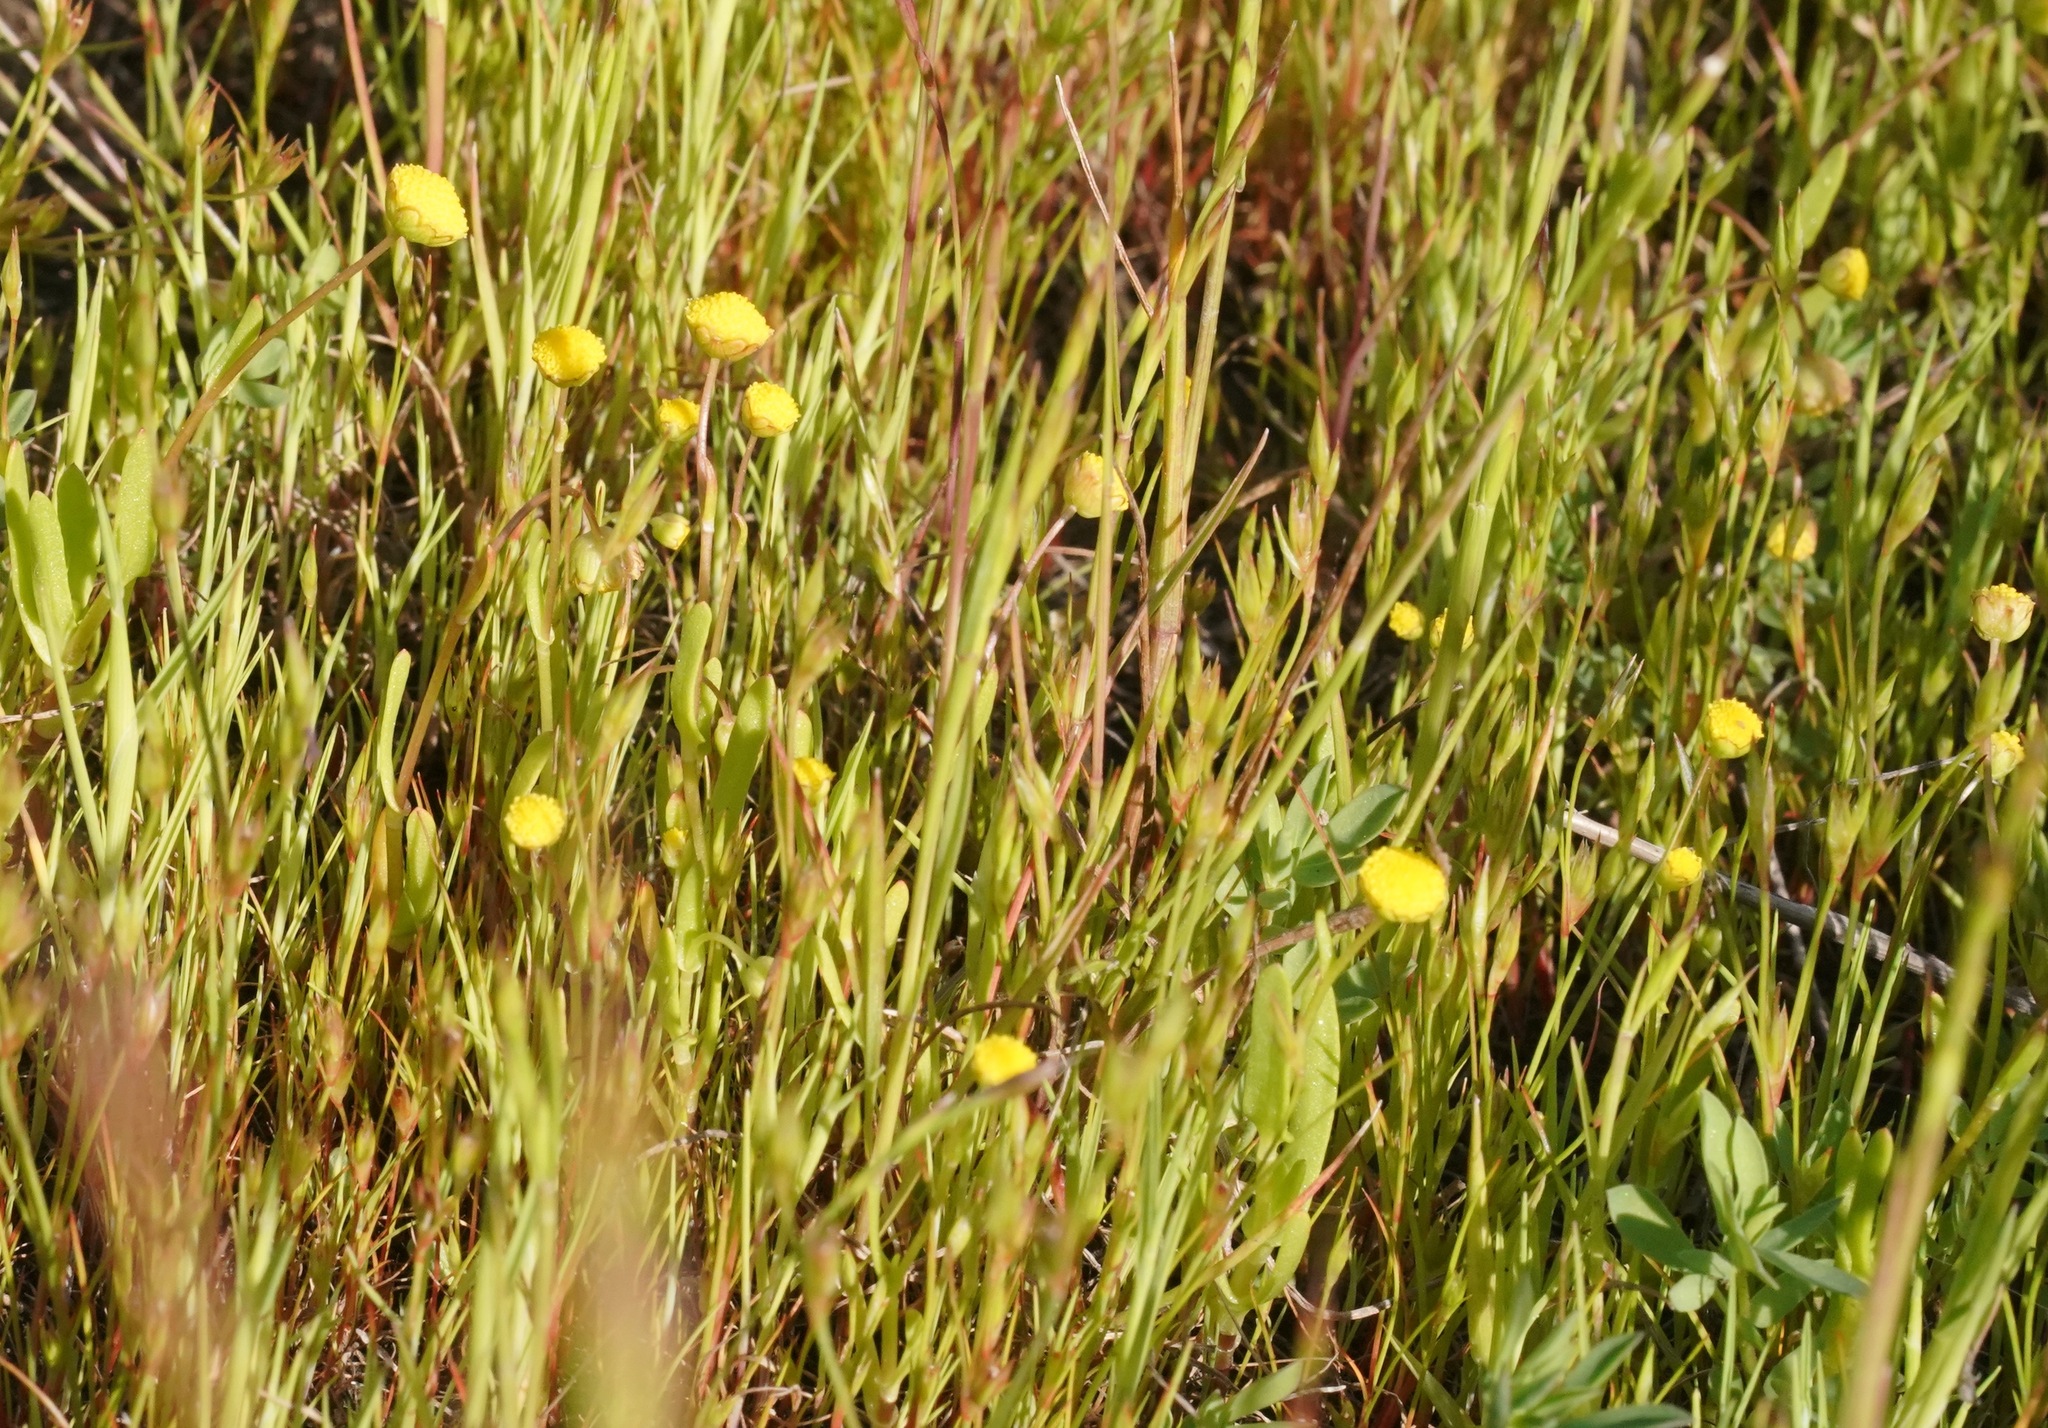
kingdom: Plantae
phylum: Tracheophyta
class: Magnoliopsida
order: Asterales
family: Asteraceae
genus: Cotula
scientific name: Cotula coronopifolia
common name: Buttonweed
